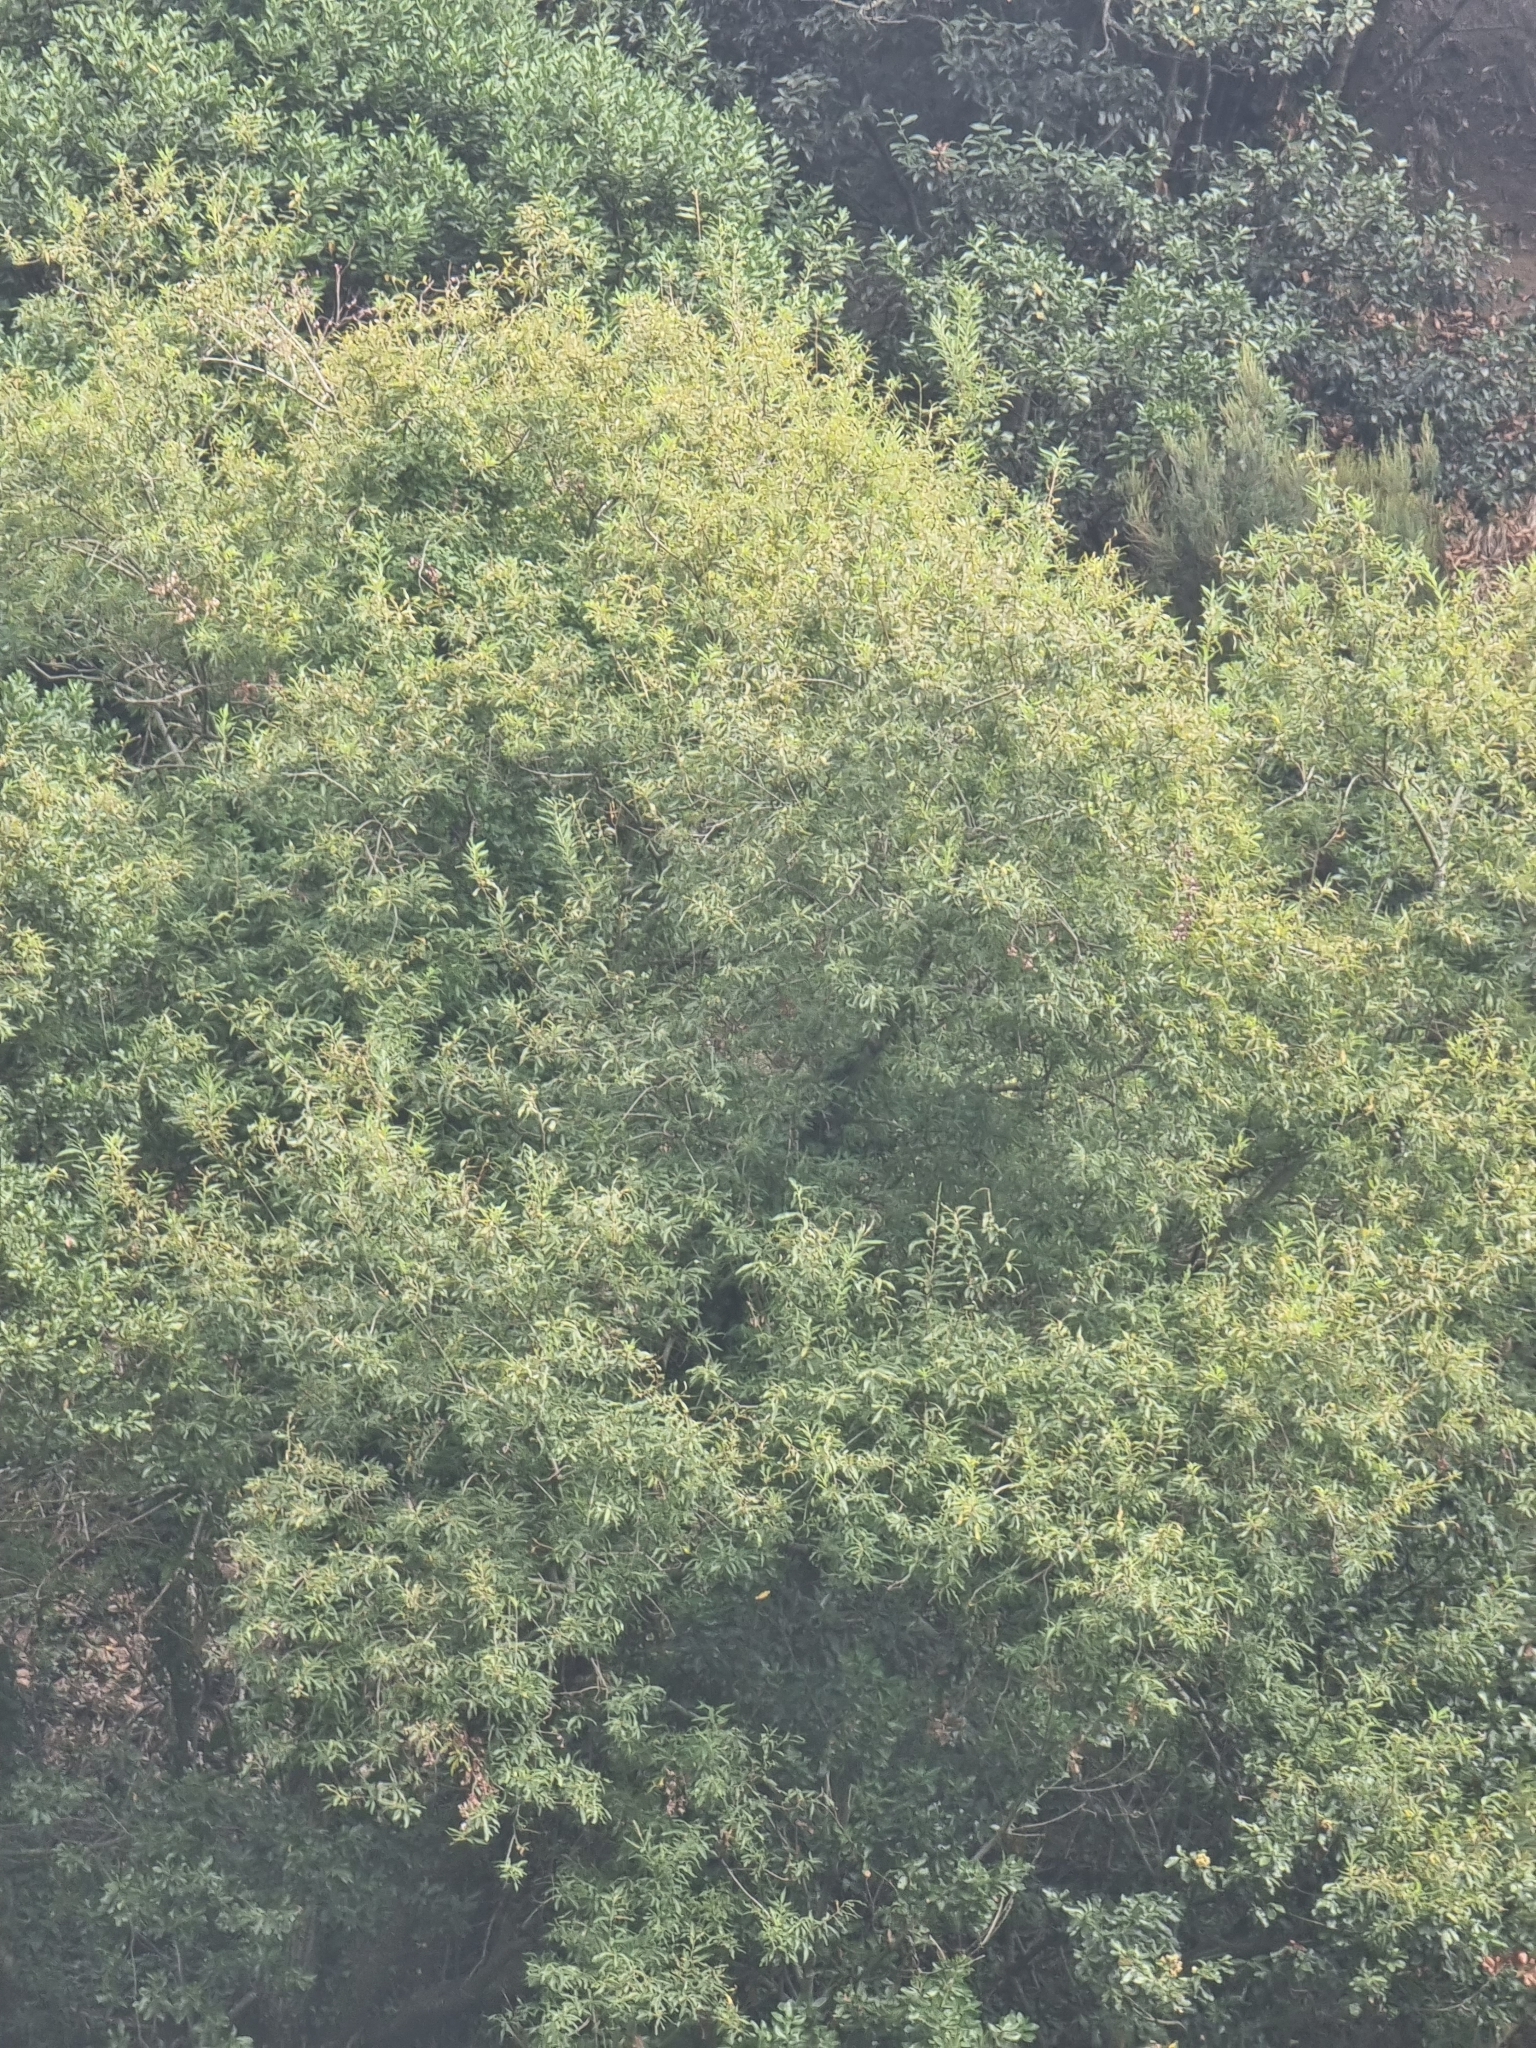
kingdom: Plantae
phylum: Tracheophyta
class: Magnoliopsida
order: Malpighiales
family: Salicaceae
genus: Salix
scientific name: Salix canariensis
